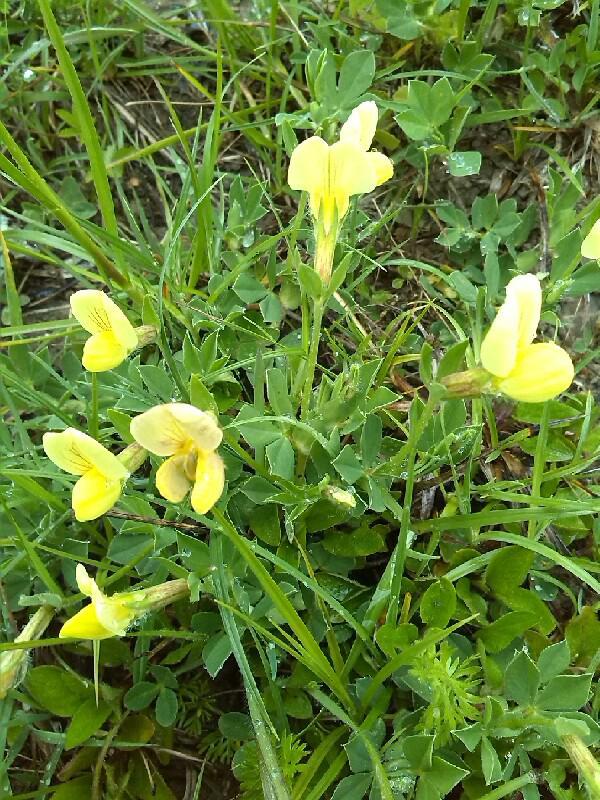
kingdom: Plantae
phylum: Tracheophyta
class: Magnoliopsida
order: Fabales
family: Fabaceae
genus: Lotus
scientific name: Lotus maritimus
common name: Dragon's-teeth
